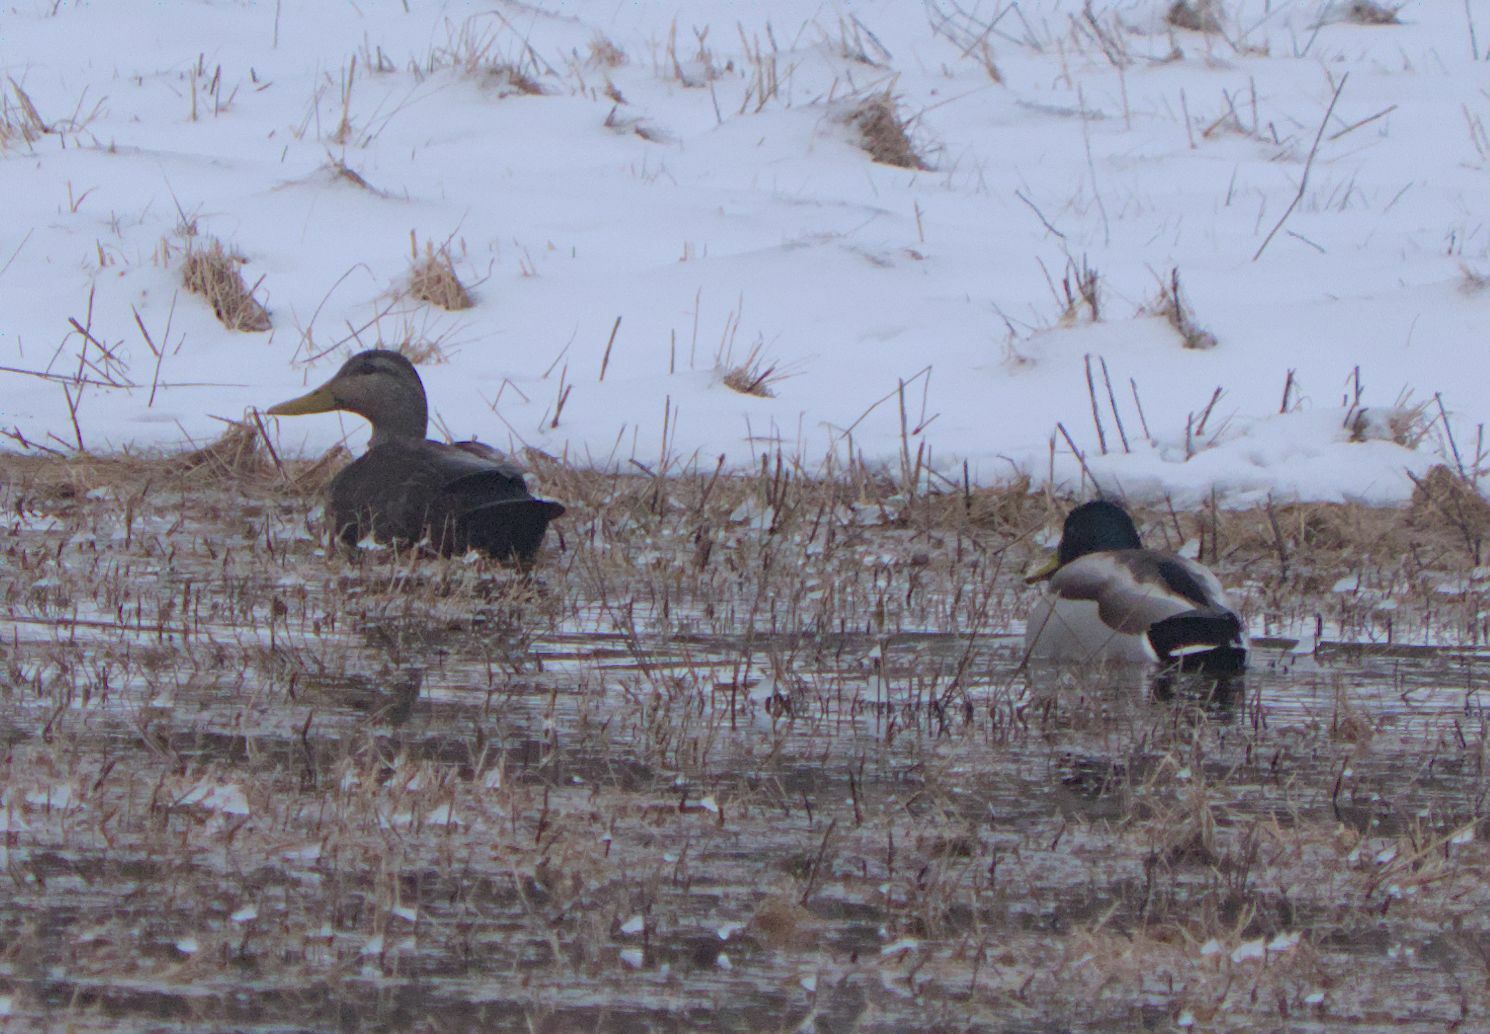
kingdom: Animalia
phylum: Chordata
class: Aves
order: Anseriformes
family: Anatidae
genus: Anas
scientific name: Anas platyrhynchos
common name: Mallard
